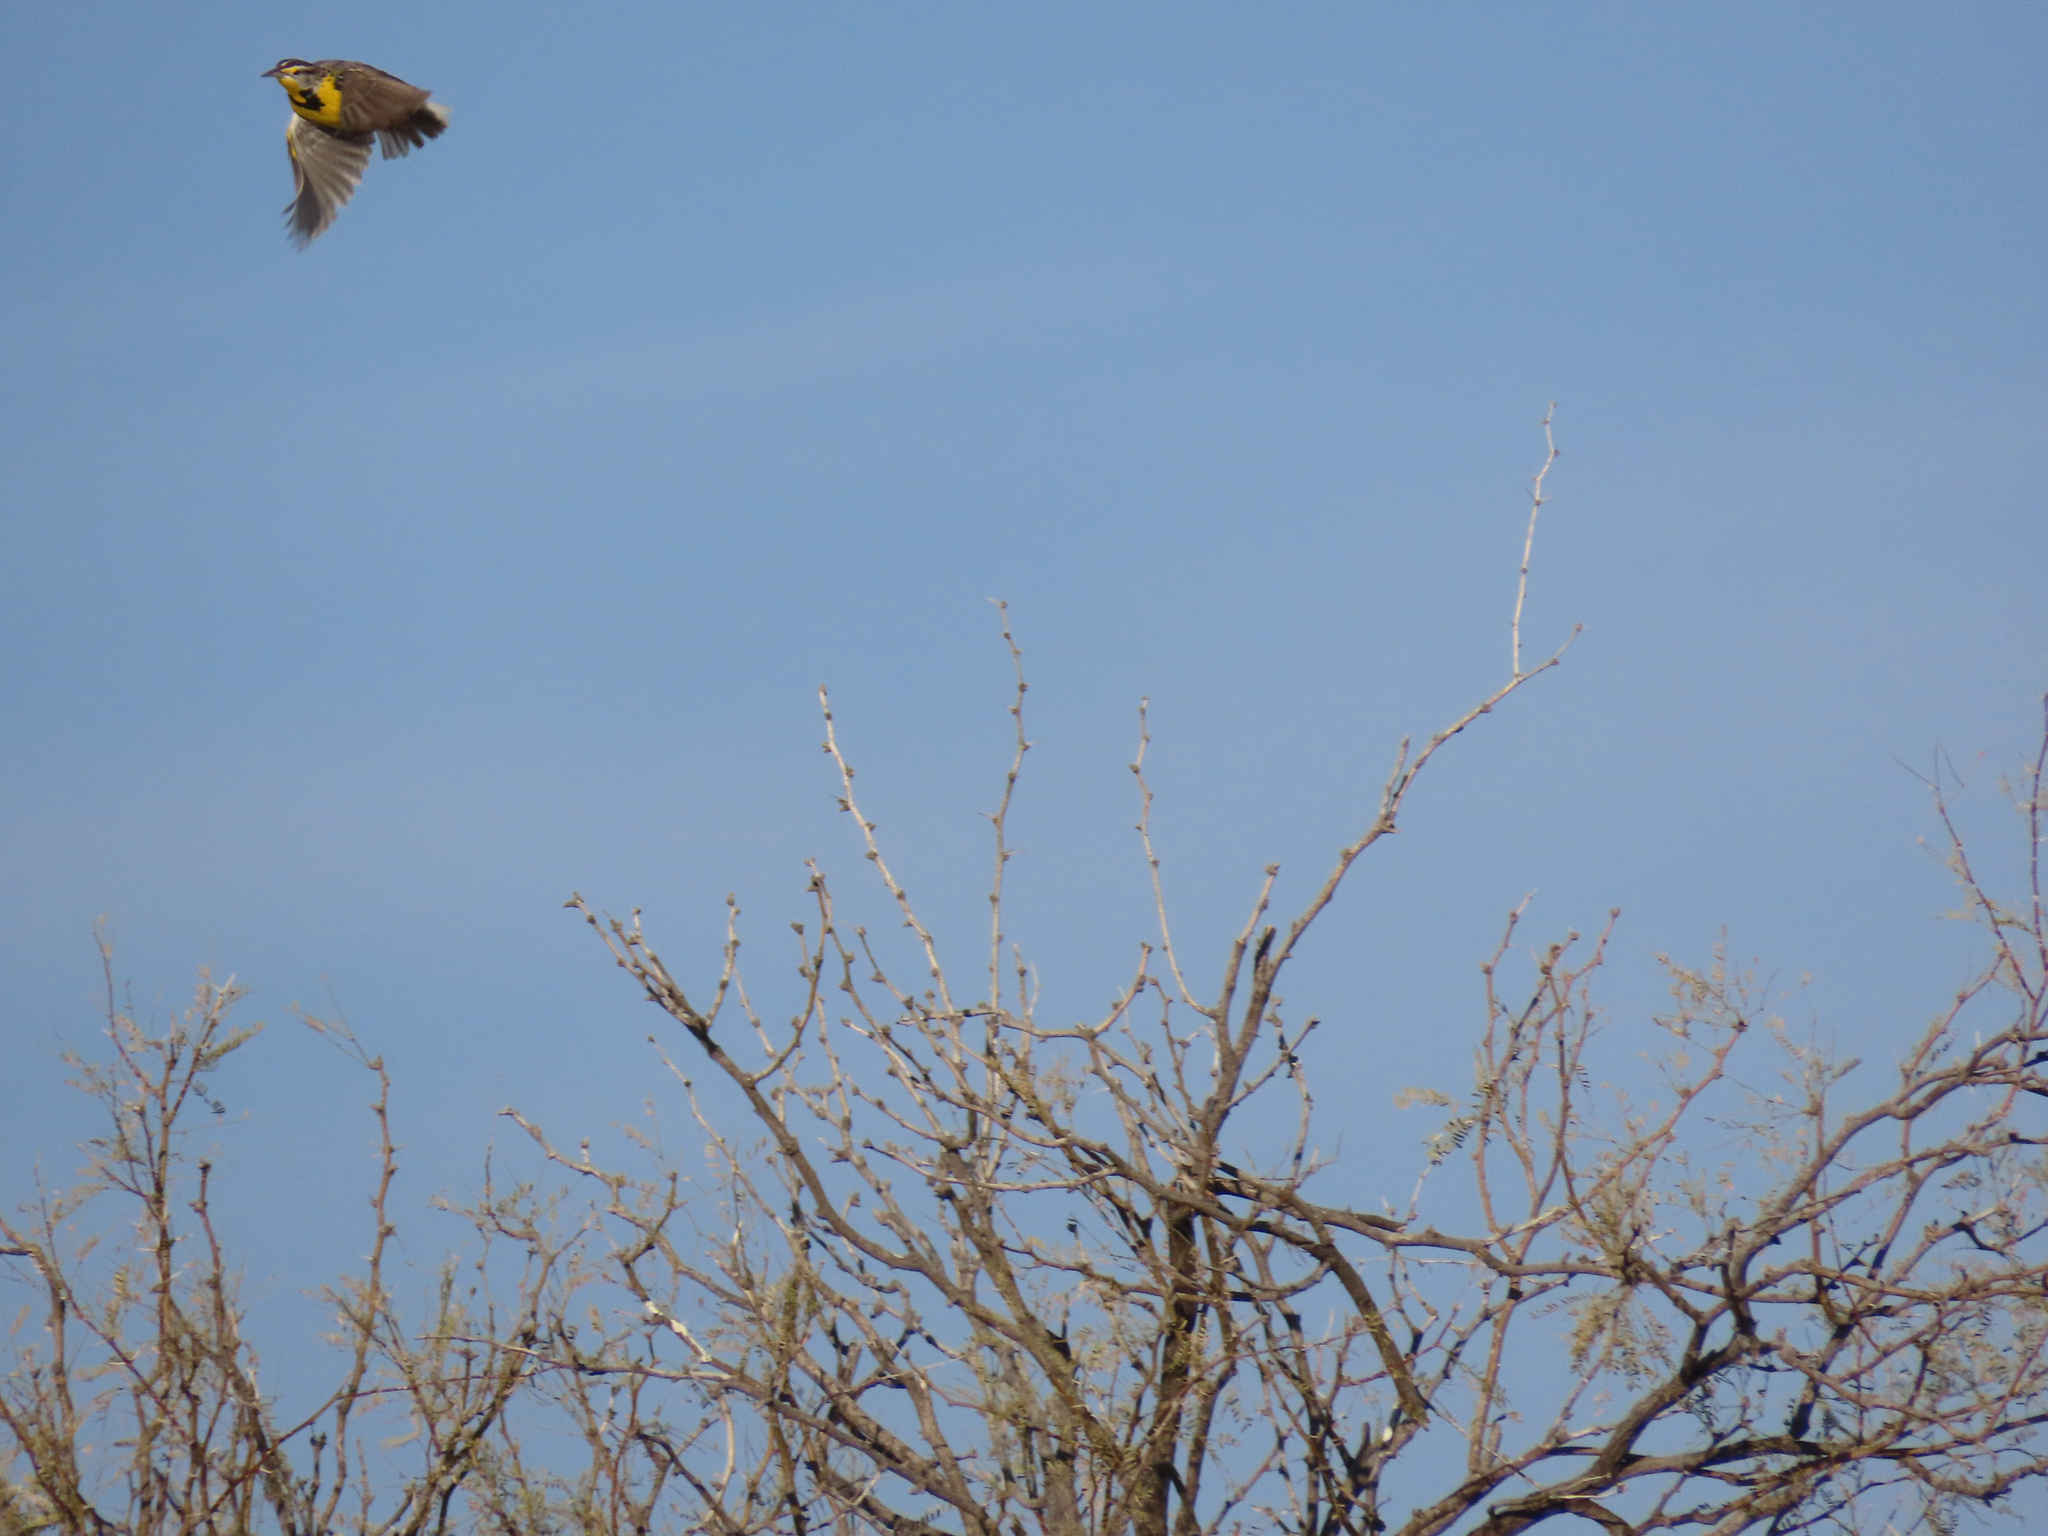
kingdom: Animalia
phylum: Chordata
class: Aves
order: Passeriformes
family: Icteridae
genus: Sturnella
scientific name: Sturnella neglecta
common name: Western meadowlark
